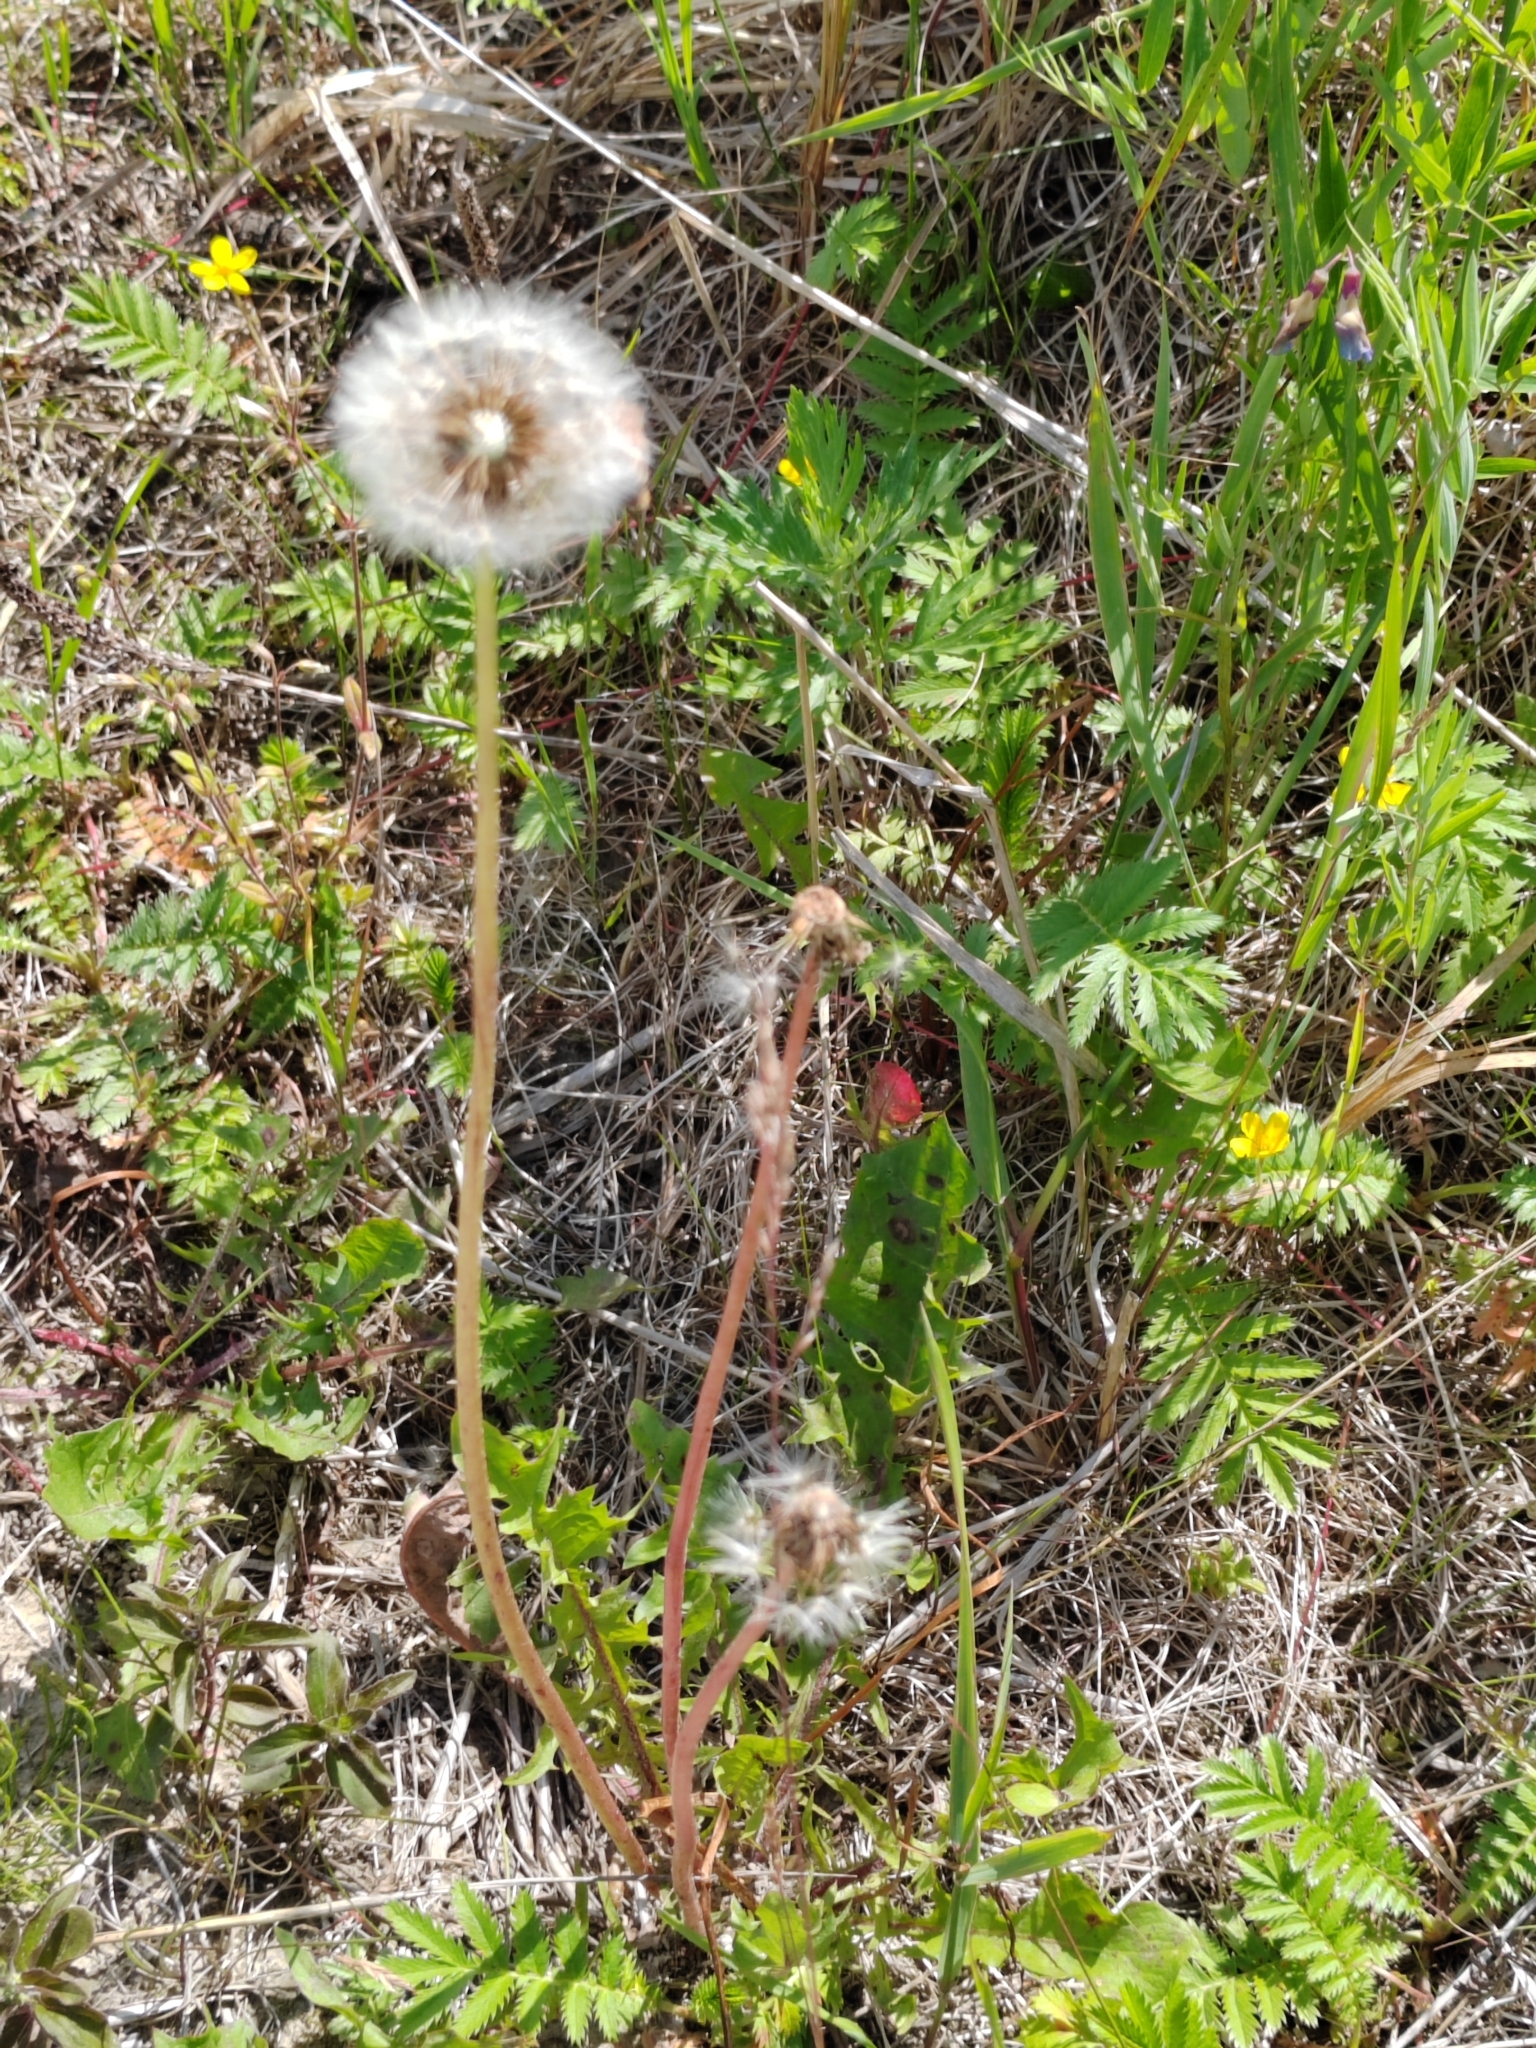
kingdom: Plantae
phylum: Tracheophyta
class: Magnoliopsida
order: Asterales
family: Asteraceae
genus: Taraxacum
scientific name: Taraxacum officinale
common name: Common dandelion
